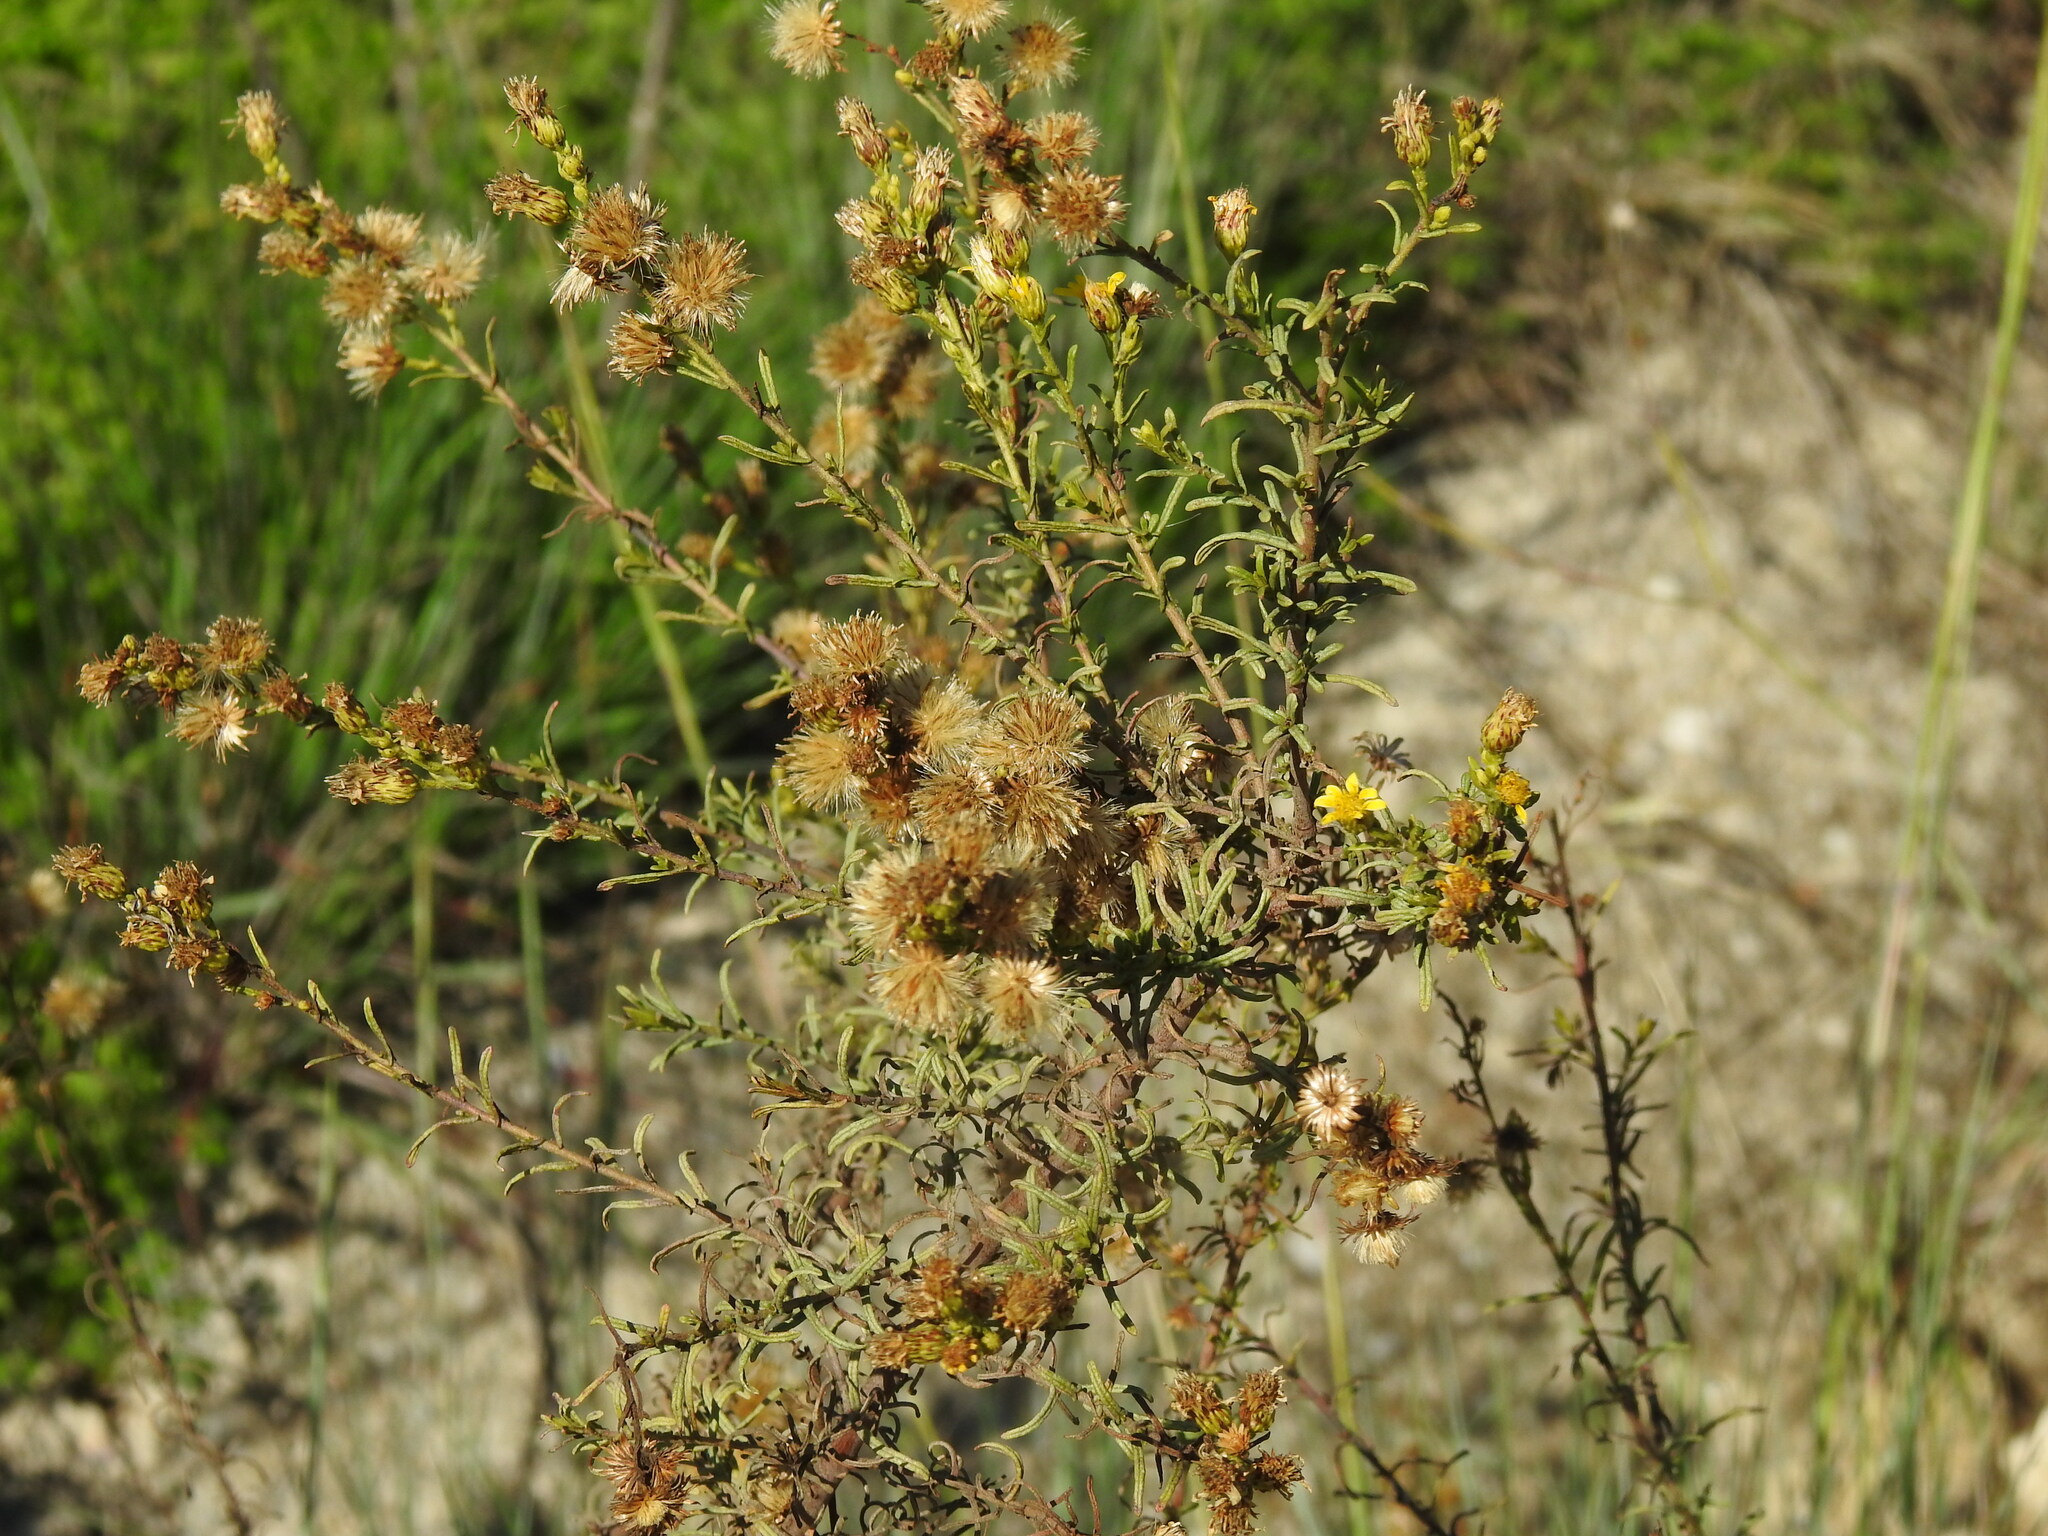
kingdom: Plantae
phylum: Tracheophyta
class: Magnoliopsida
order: Asterales
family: Asteraceae
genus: Dittrichia
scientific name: Dittrichia viscosa
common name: Woody fleabane
